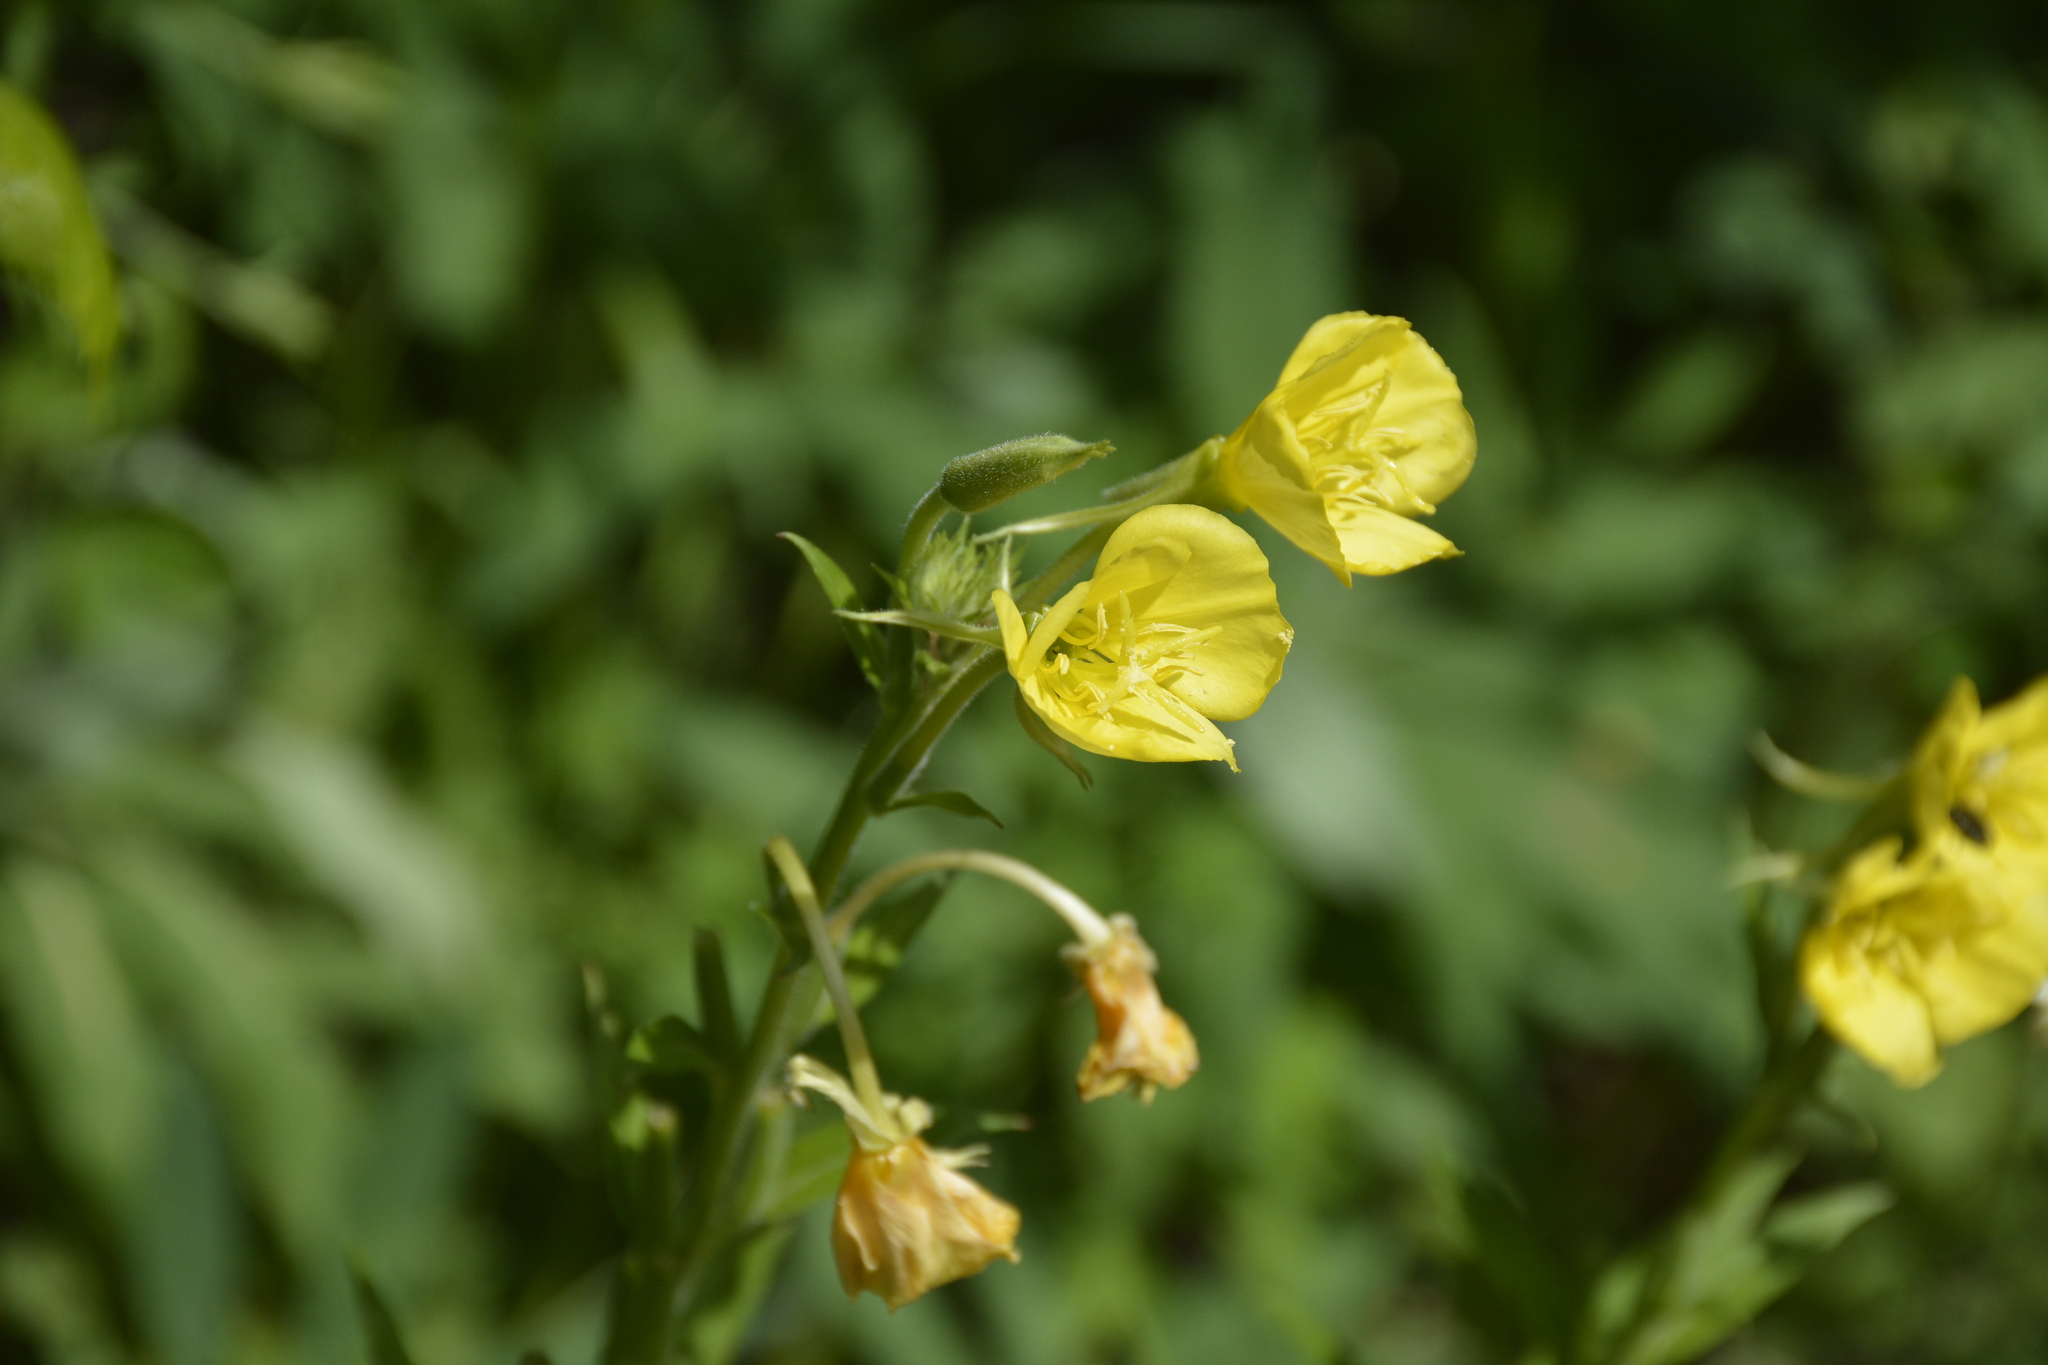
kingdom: Plantae
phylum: Tracheophyta
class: Magnoliopsida
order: Myrtales
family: Onagraceae
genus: Oenothera
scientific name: Oenothera biennis
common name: Common evening-primrose
